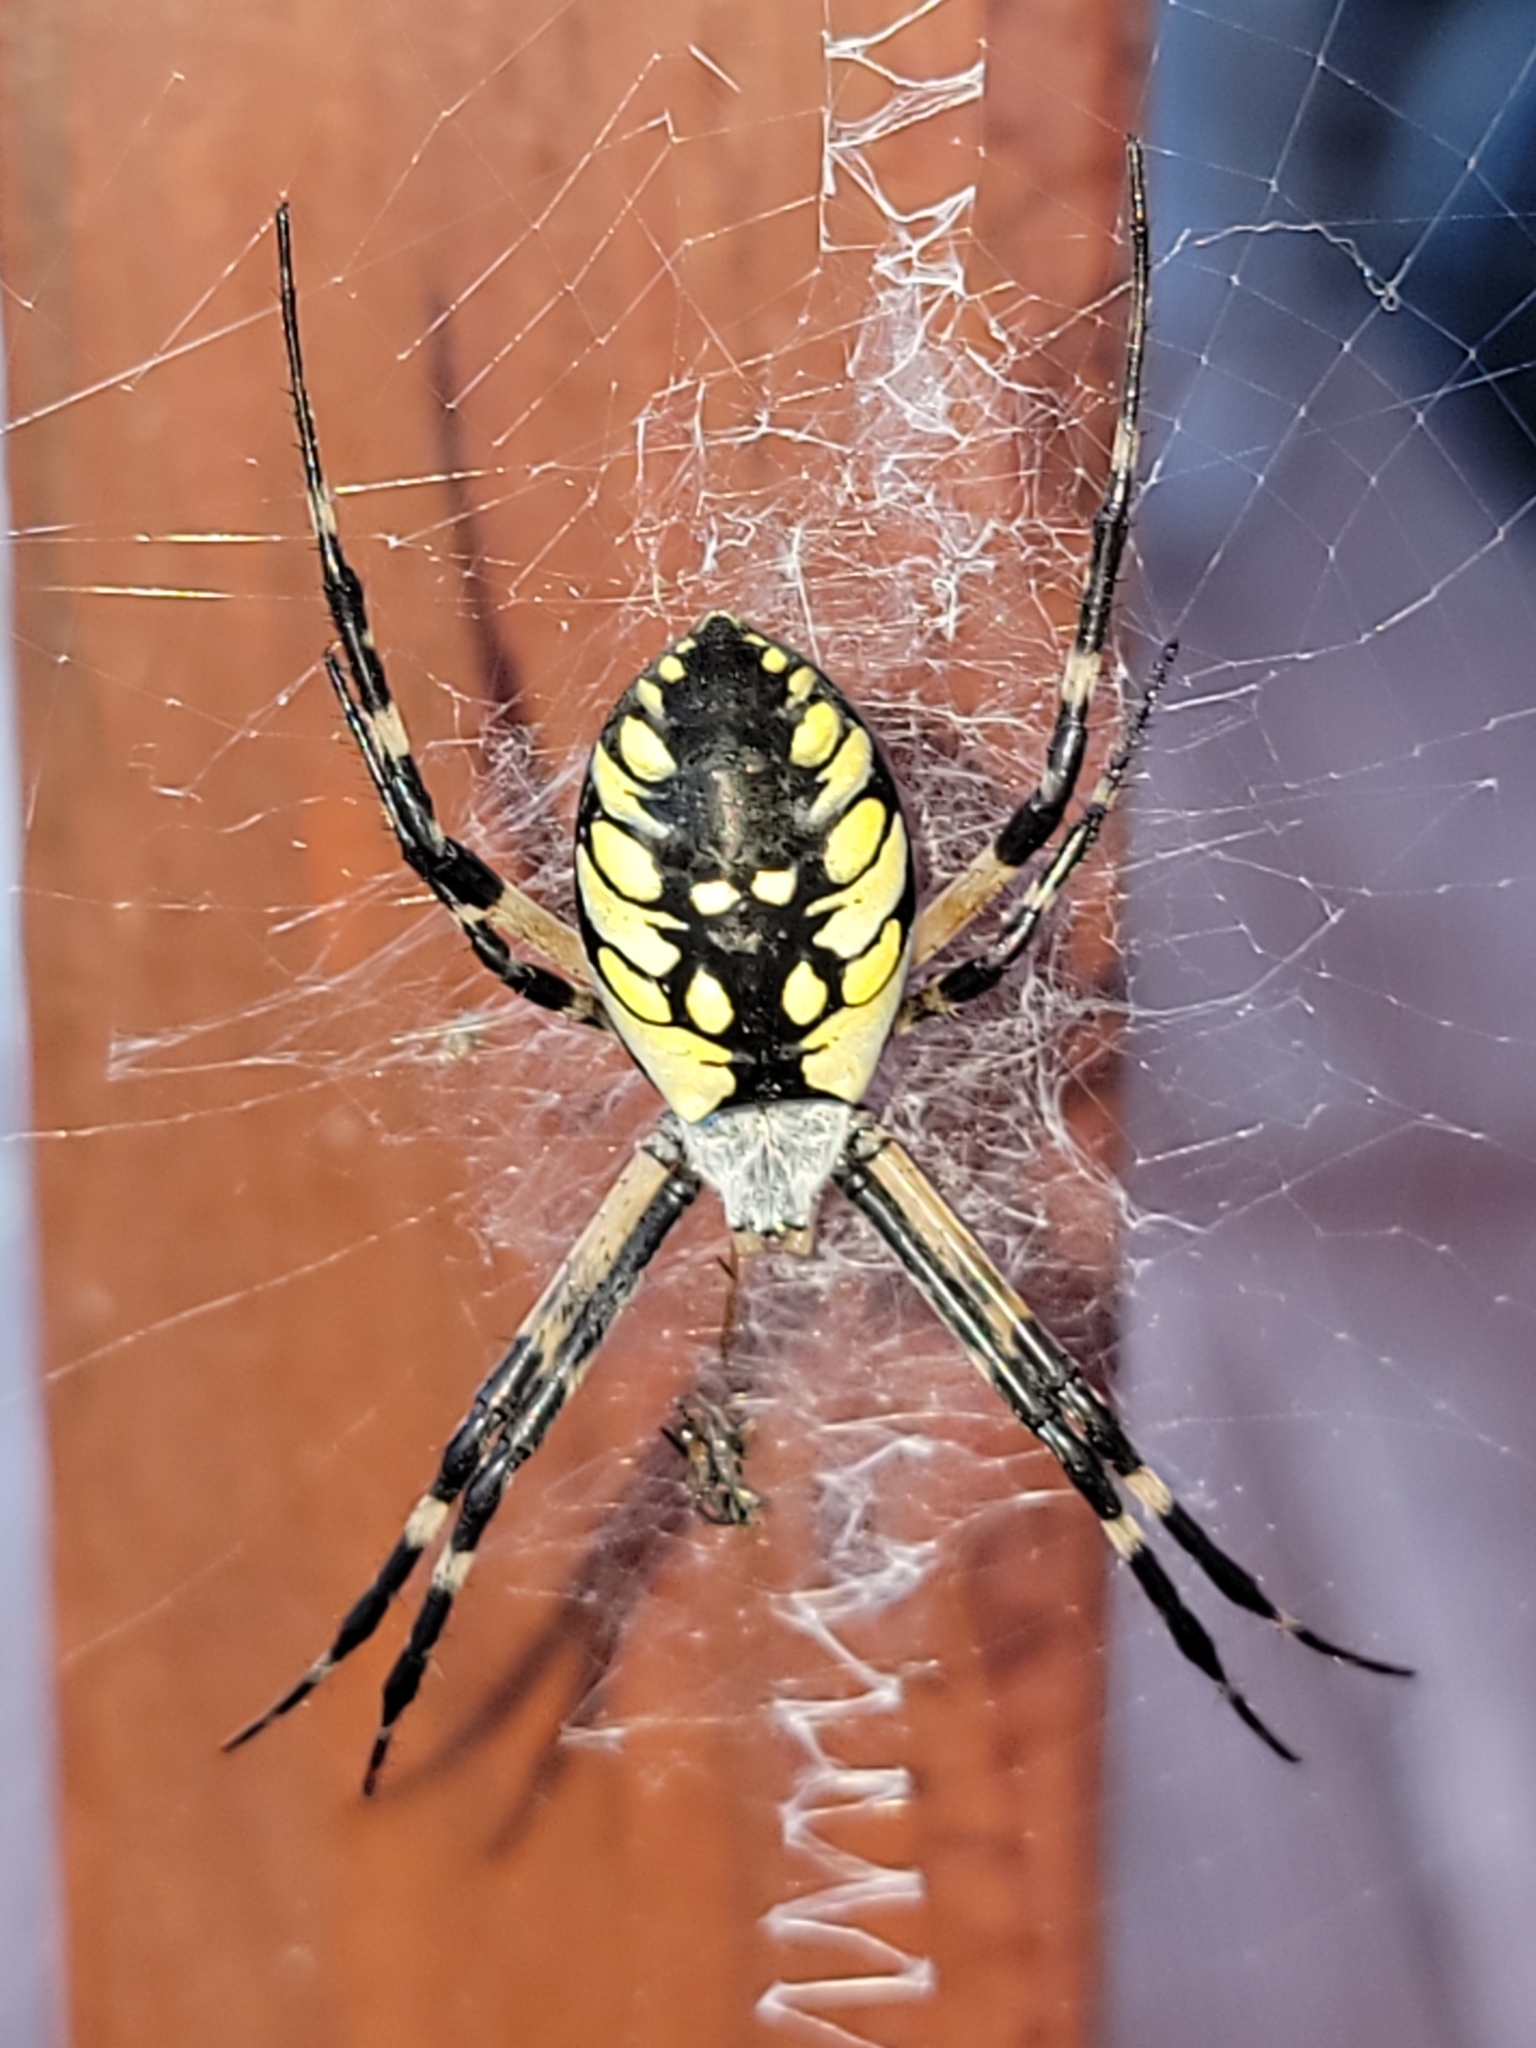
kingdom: Animalia
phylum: Arthropoda
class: Arachnida
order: Araneae
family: Araneidae
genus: Argiope
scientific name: Argiope aurantia
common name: Orb weavers
